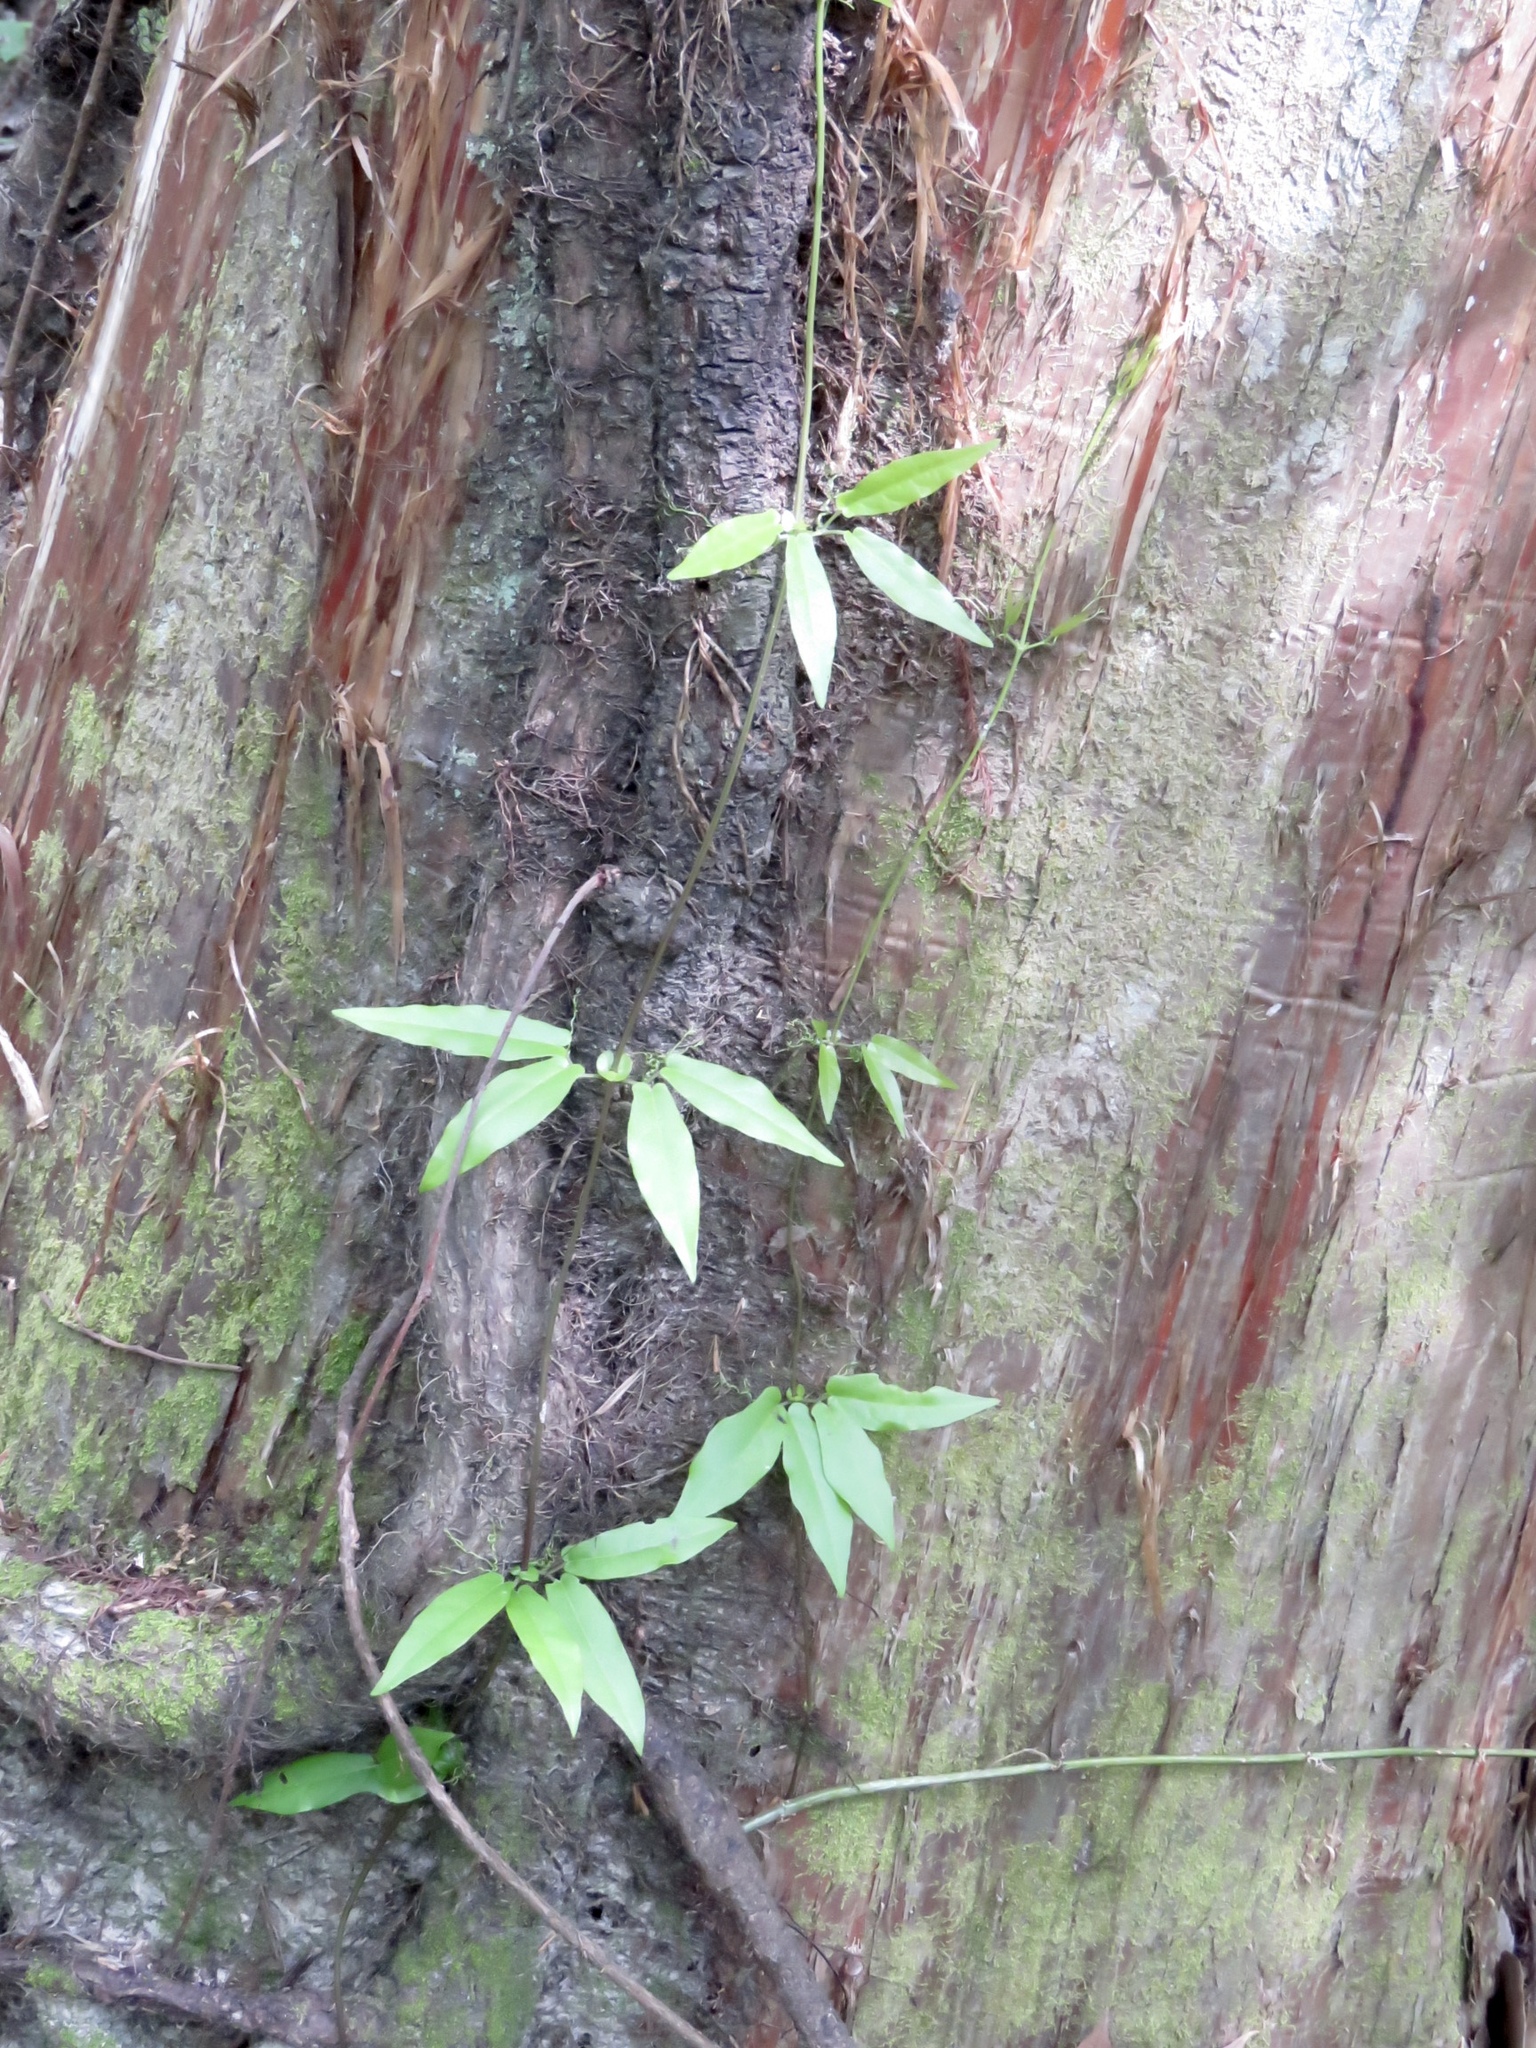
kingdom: Plantae
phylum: Tracheophyta
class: Magnoliopsida
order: Lamiales
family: Bignoniaceae
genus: Bignonia
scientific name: Bignonia capreolata
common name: Crossvine
